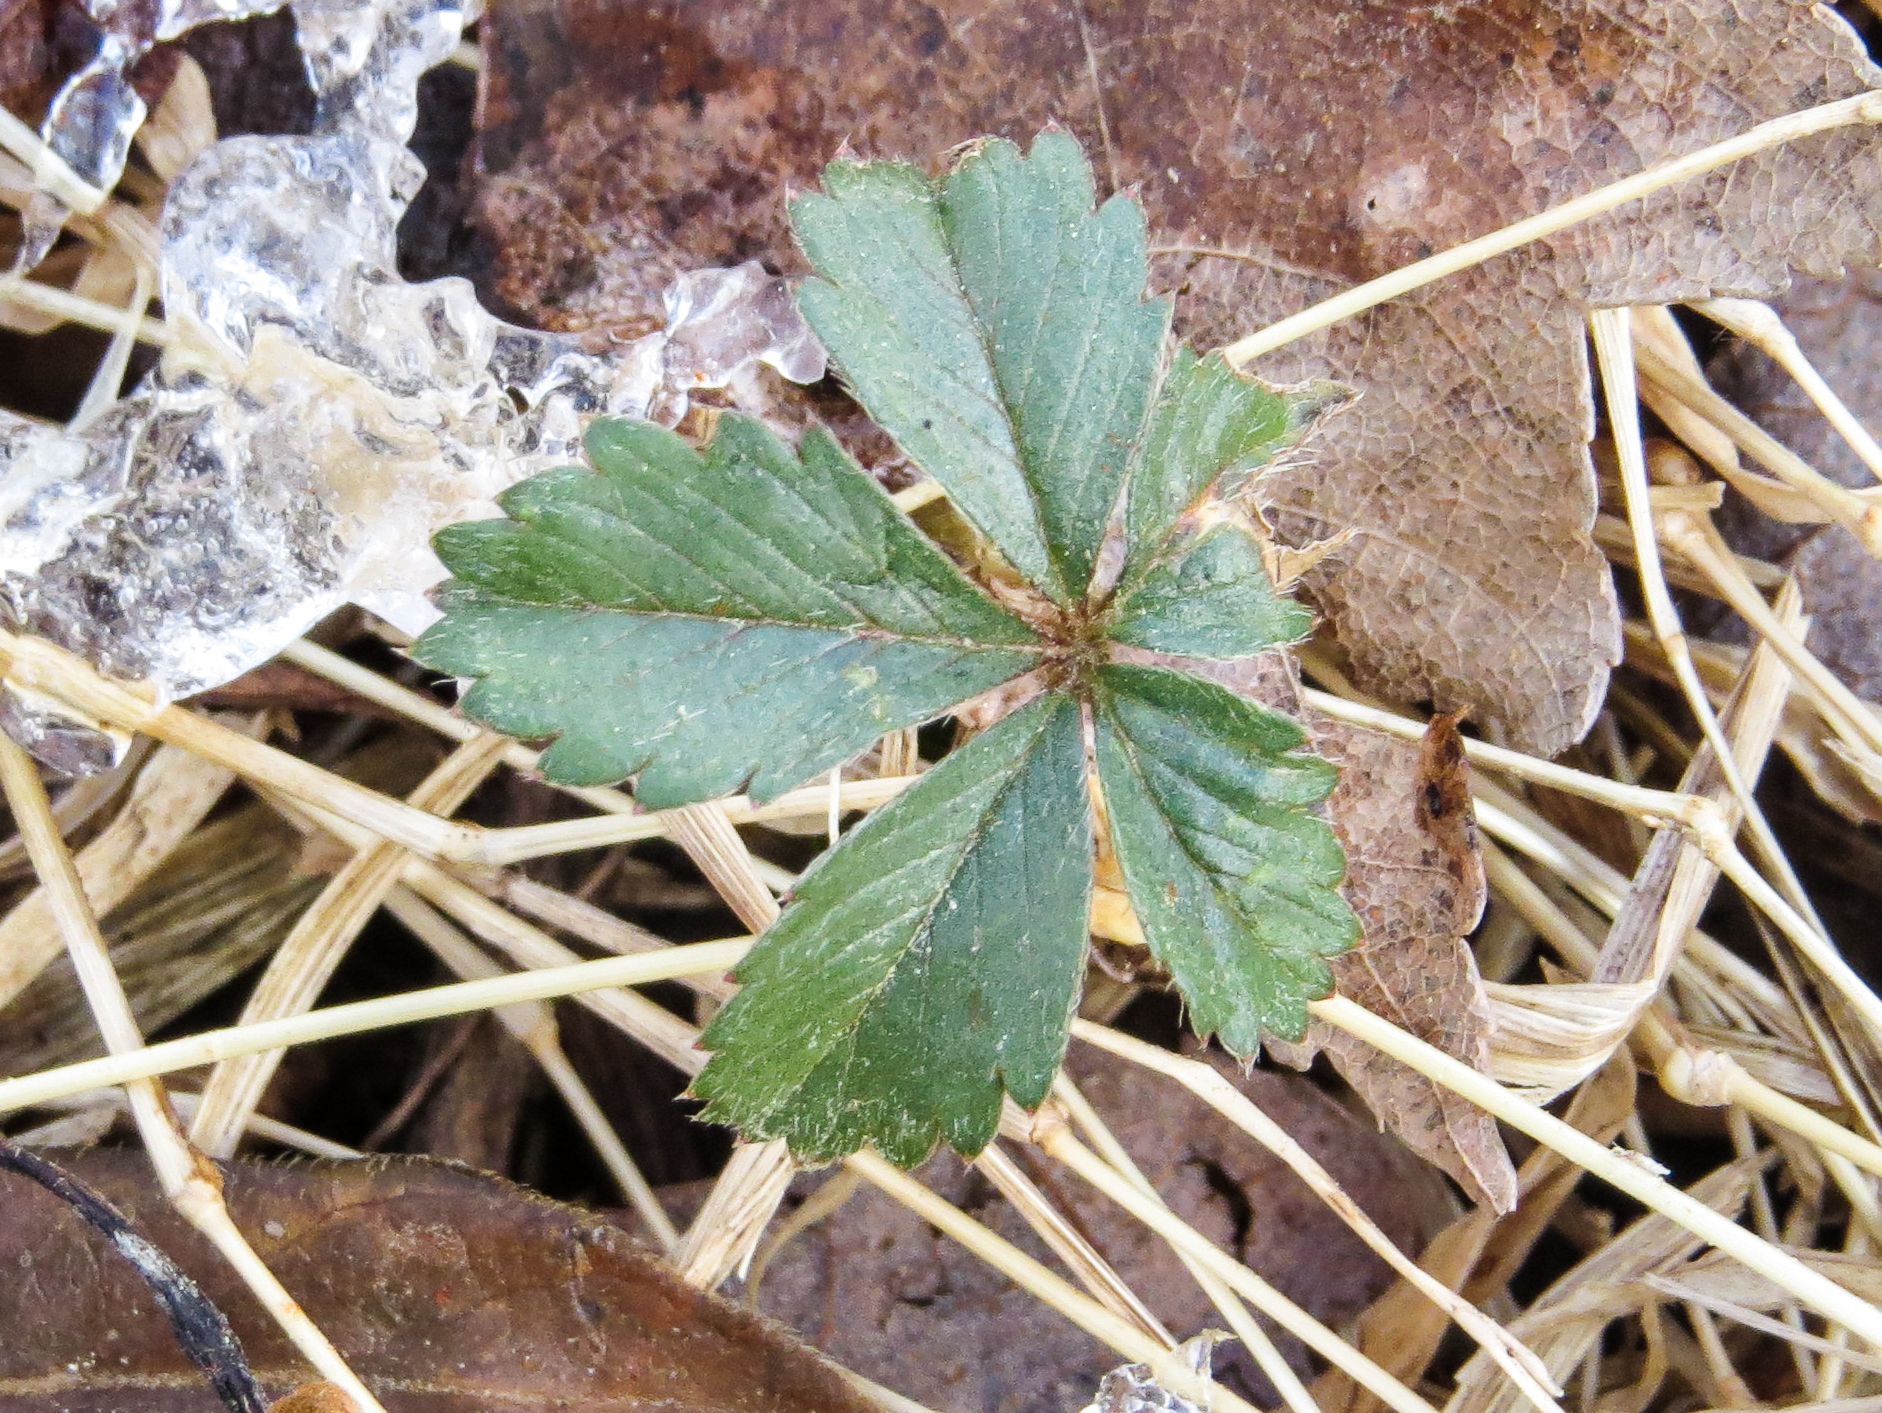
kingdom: Plantae
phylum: Tracheophyta
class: Magnoliopsida
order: Rosales
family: Rosaceae
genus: Potentilla
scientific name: Potentilla canadensis
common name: Canada cinquefoil
